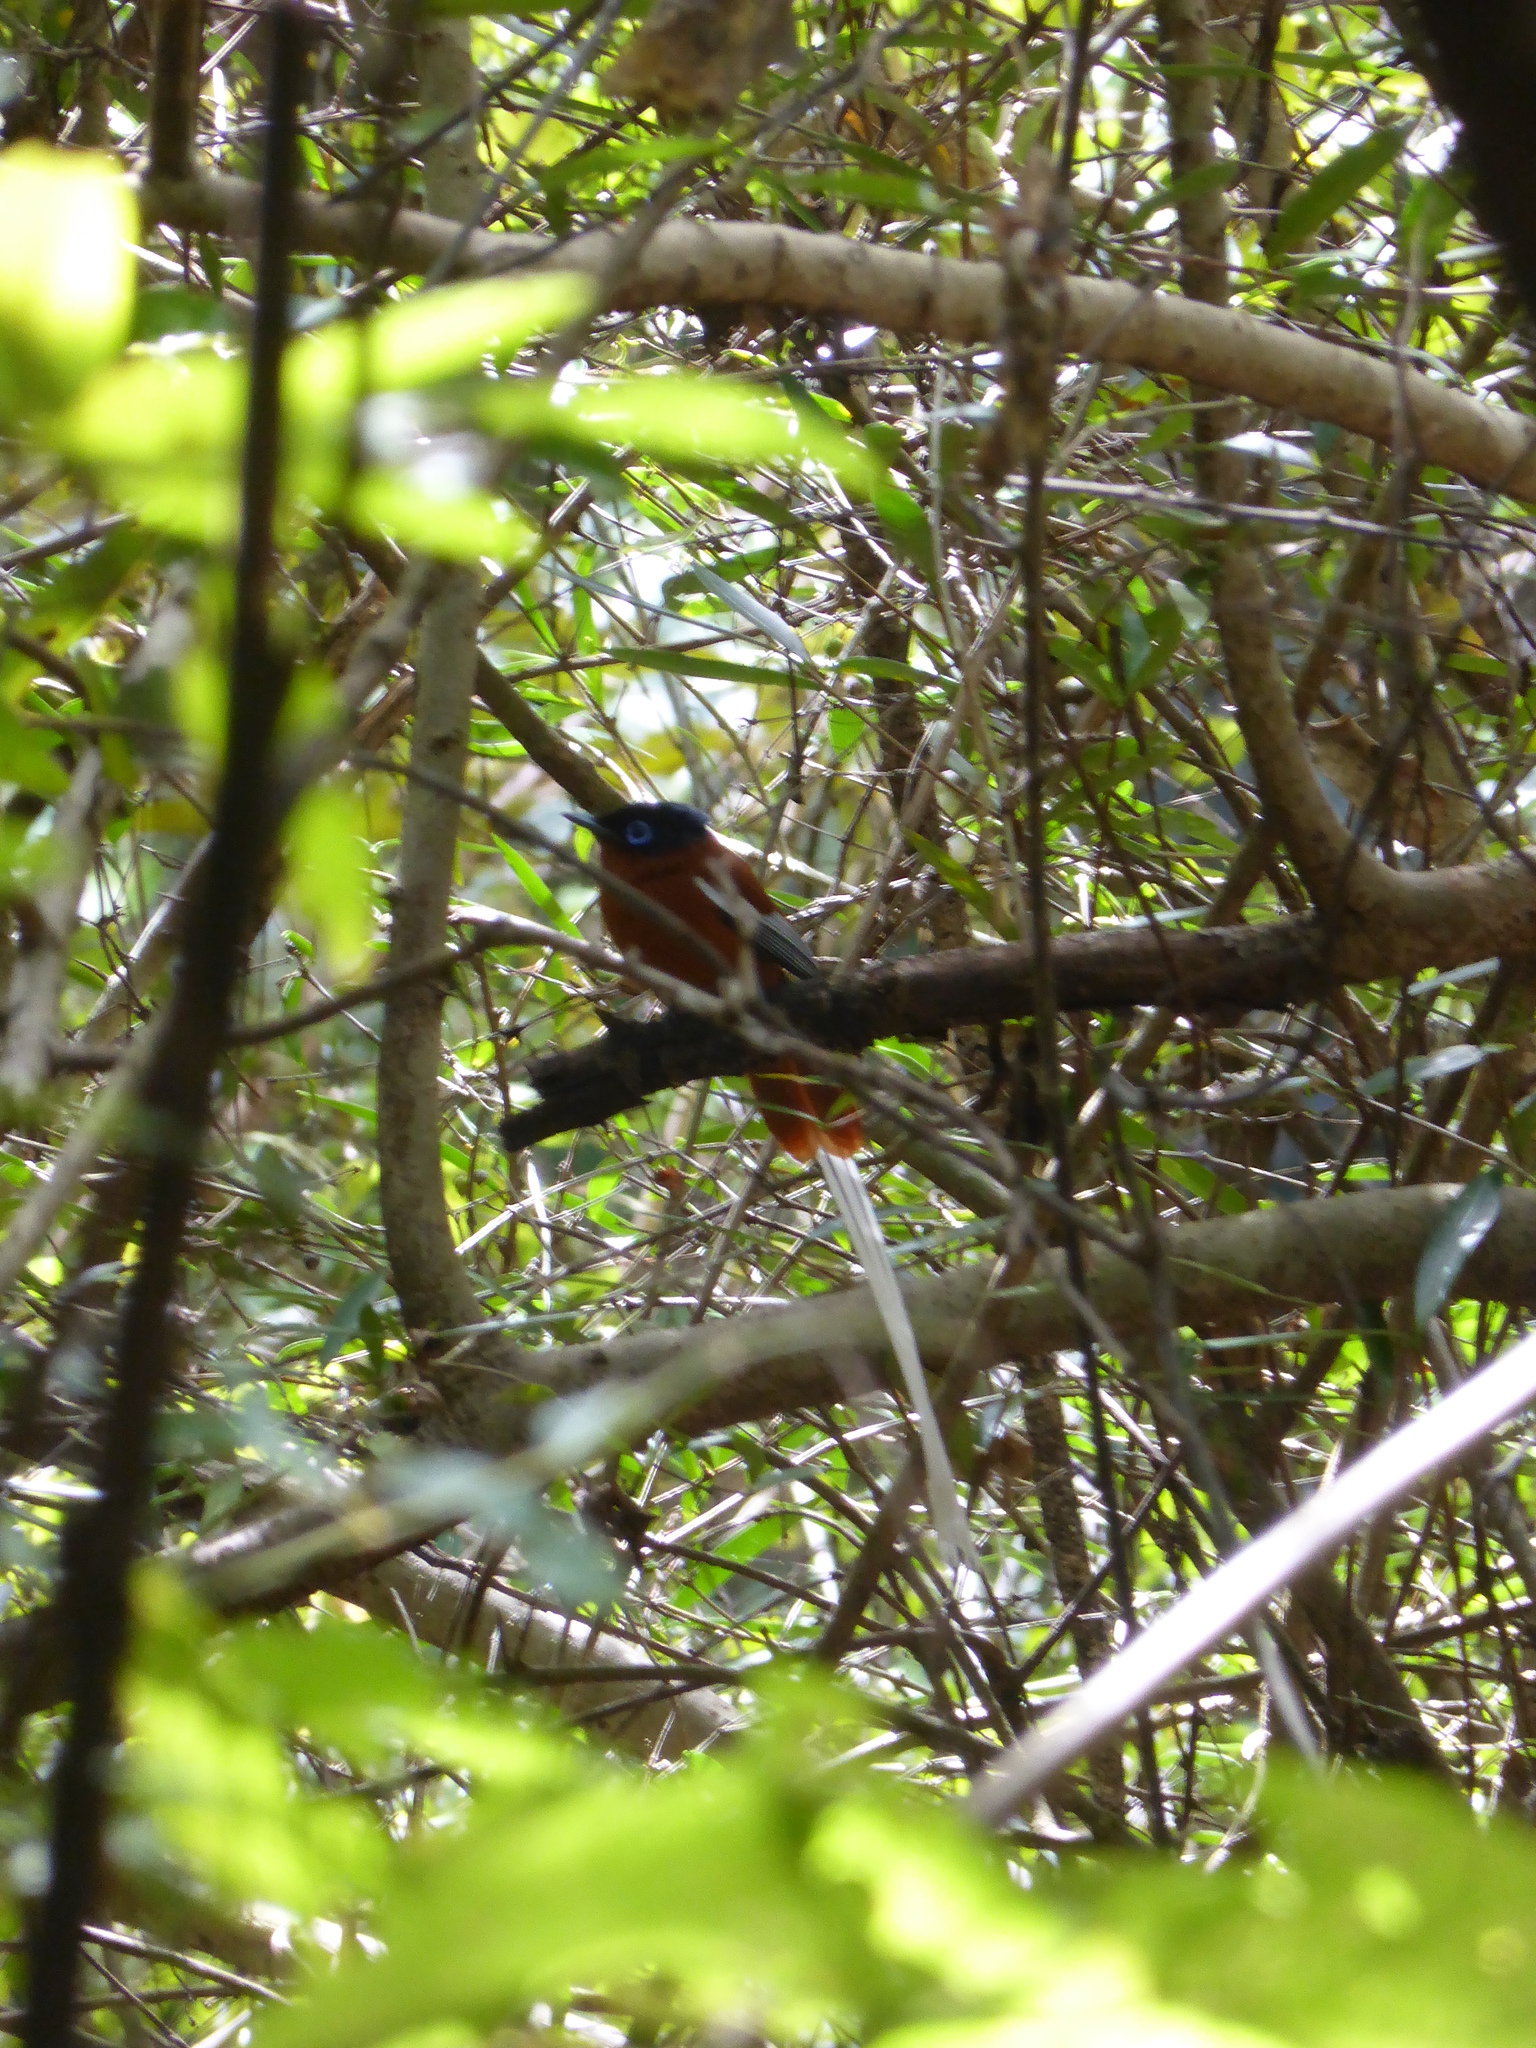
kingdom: Animalia
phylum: Chordata
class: Aves
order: Passeriformes
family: Monarchidae
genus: Terpsiphone
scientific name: Terpsiphone mutata
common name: Malagasy paradise flycatcher
